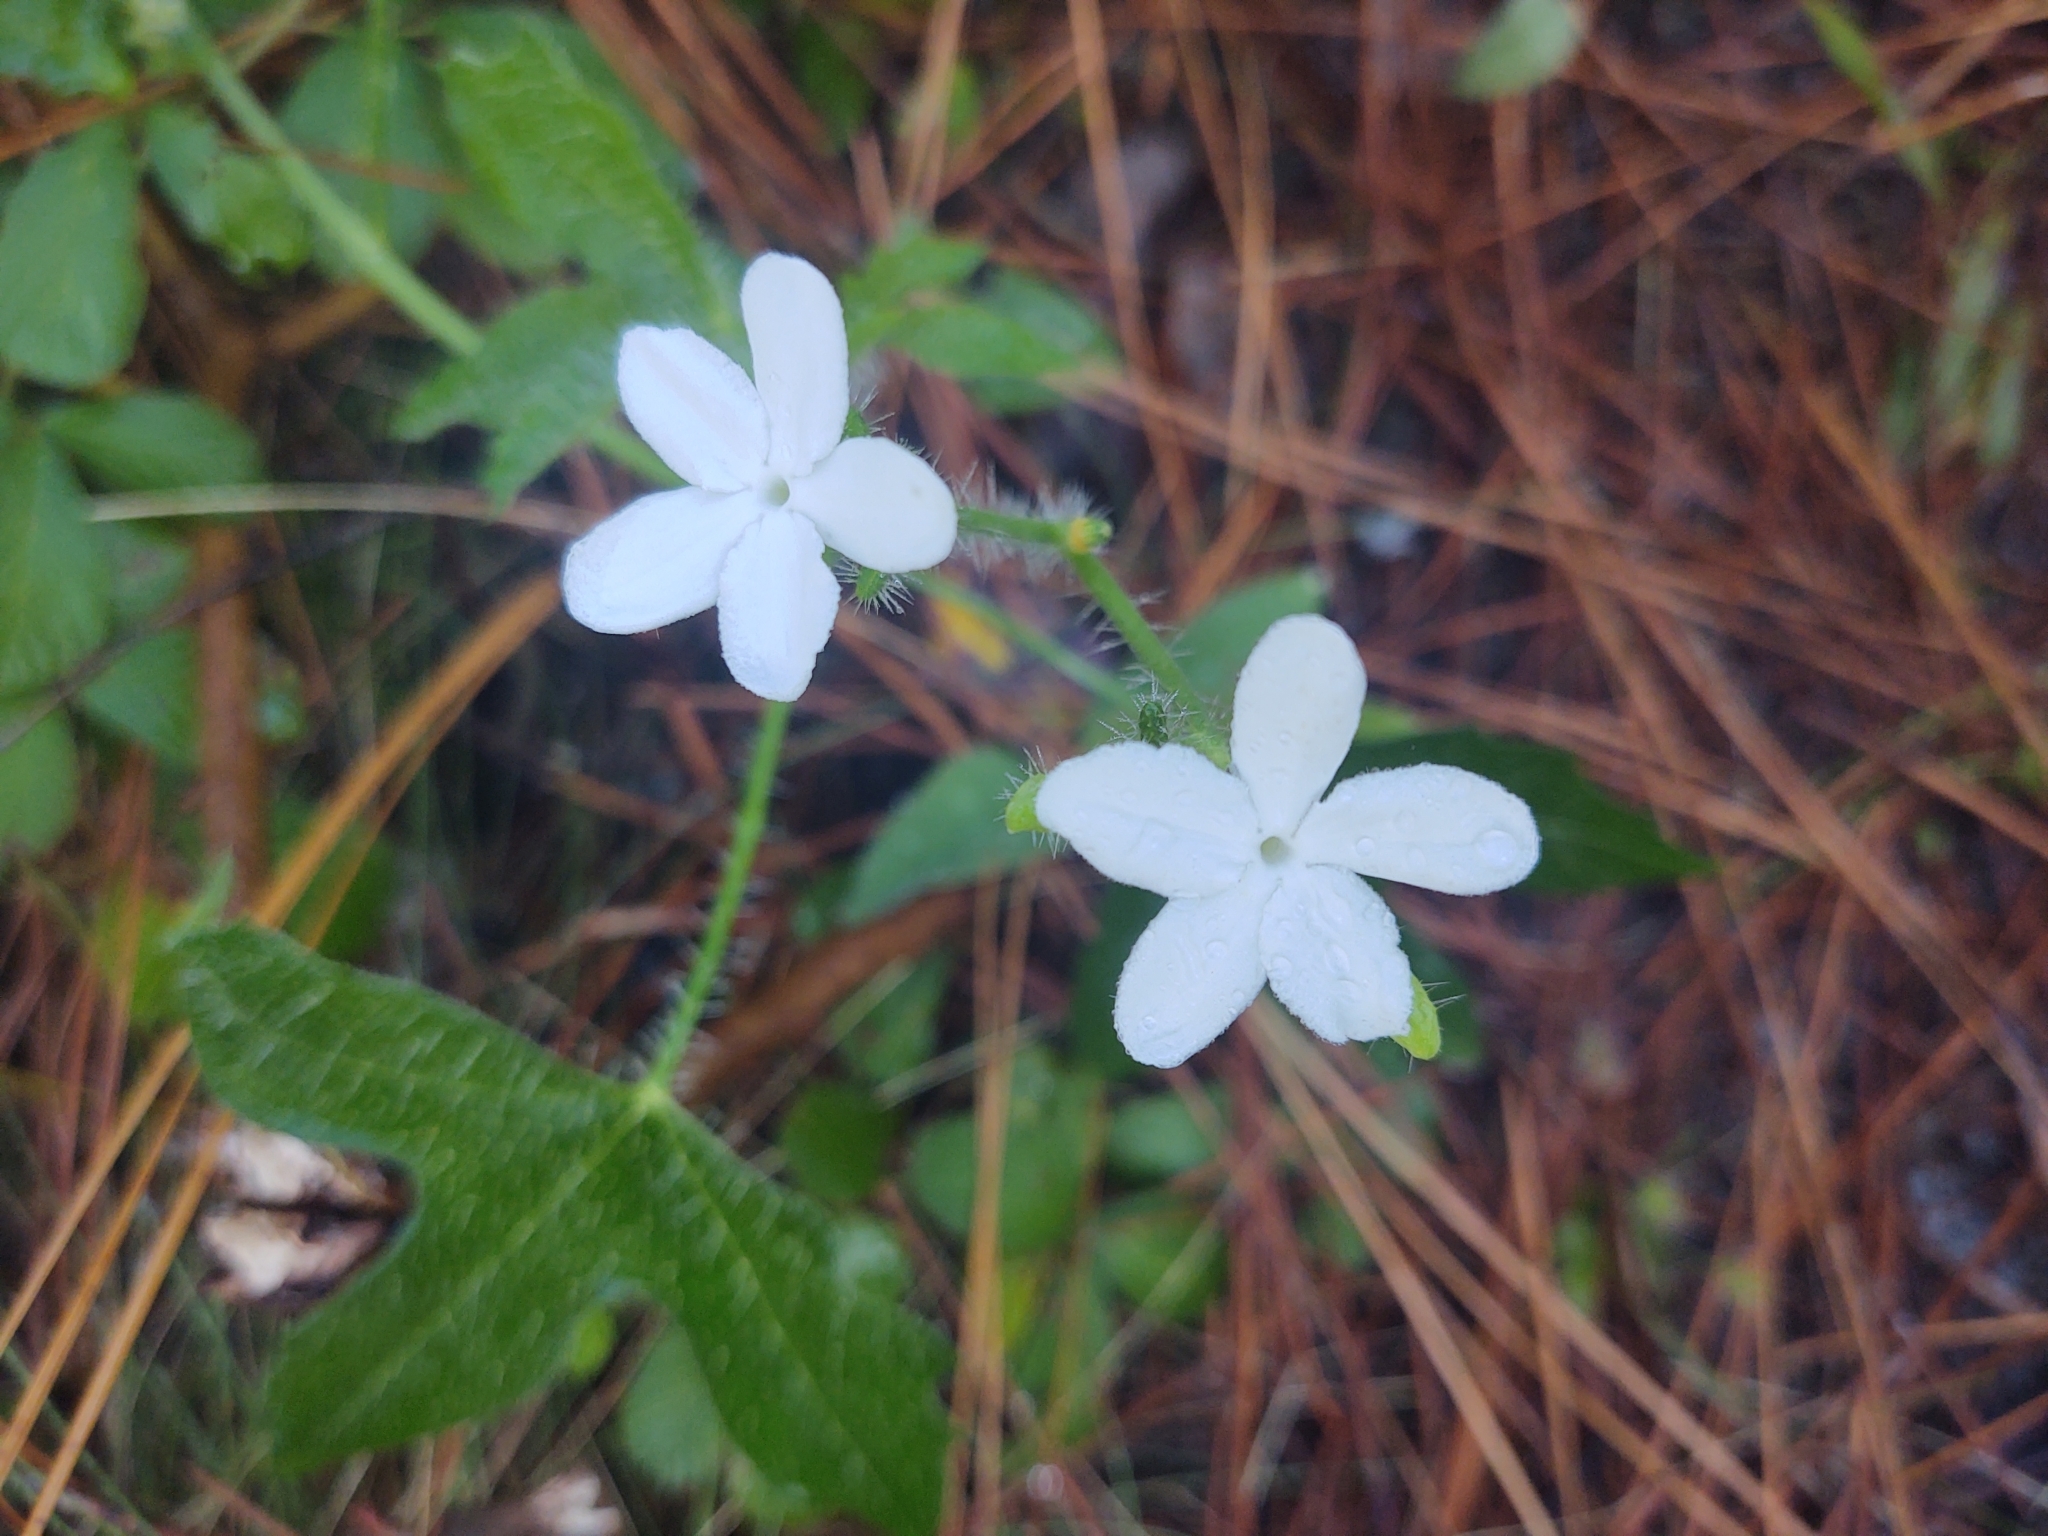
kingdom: Plantae
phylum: Tracheophyta
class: Magnoliopsida
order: Malpighiales
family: Euphorbiaceae
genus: Cnidoscolus
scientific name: Cnidoscolus stimulosus
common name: Bull-nettle
